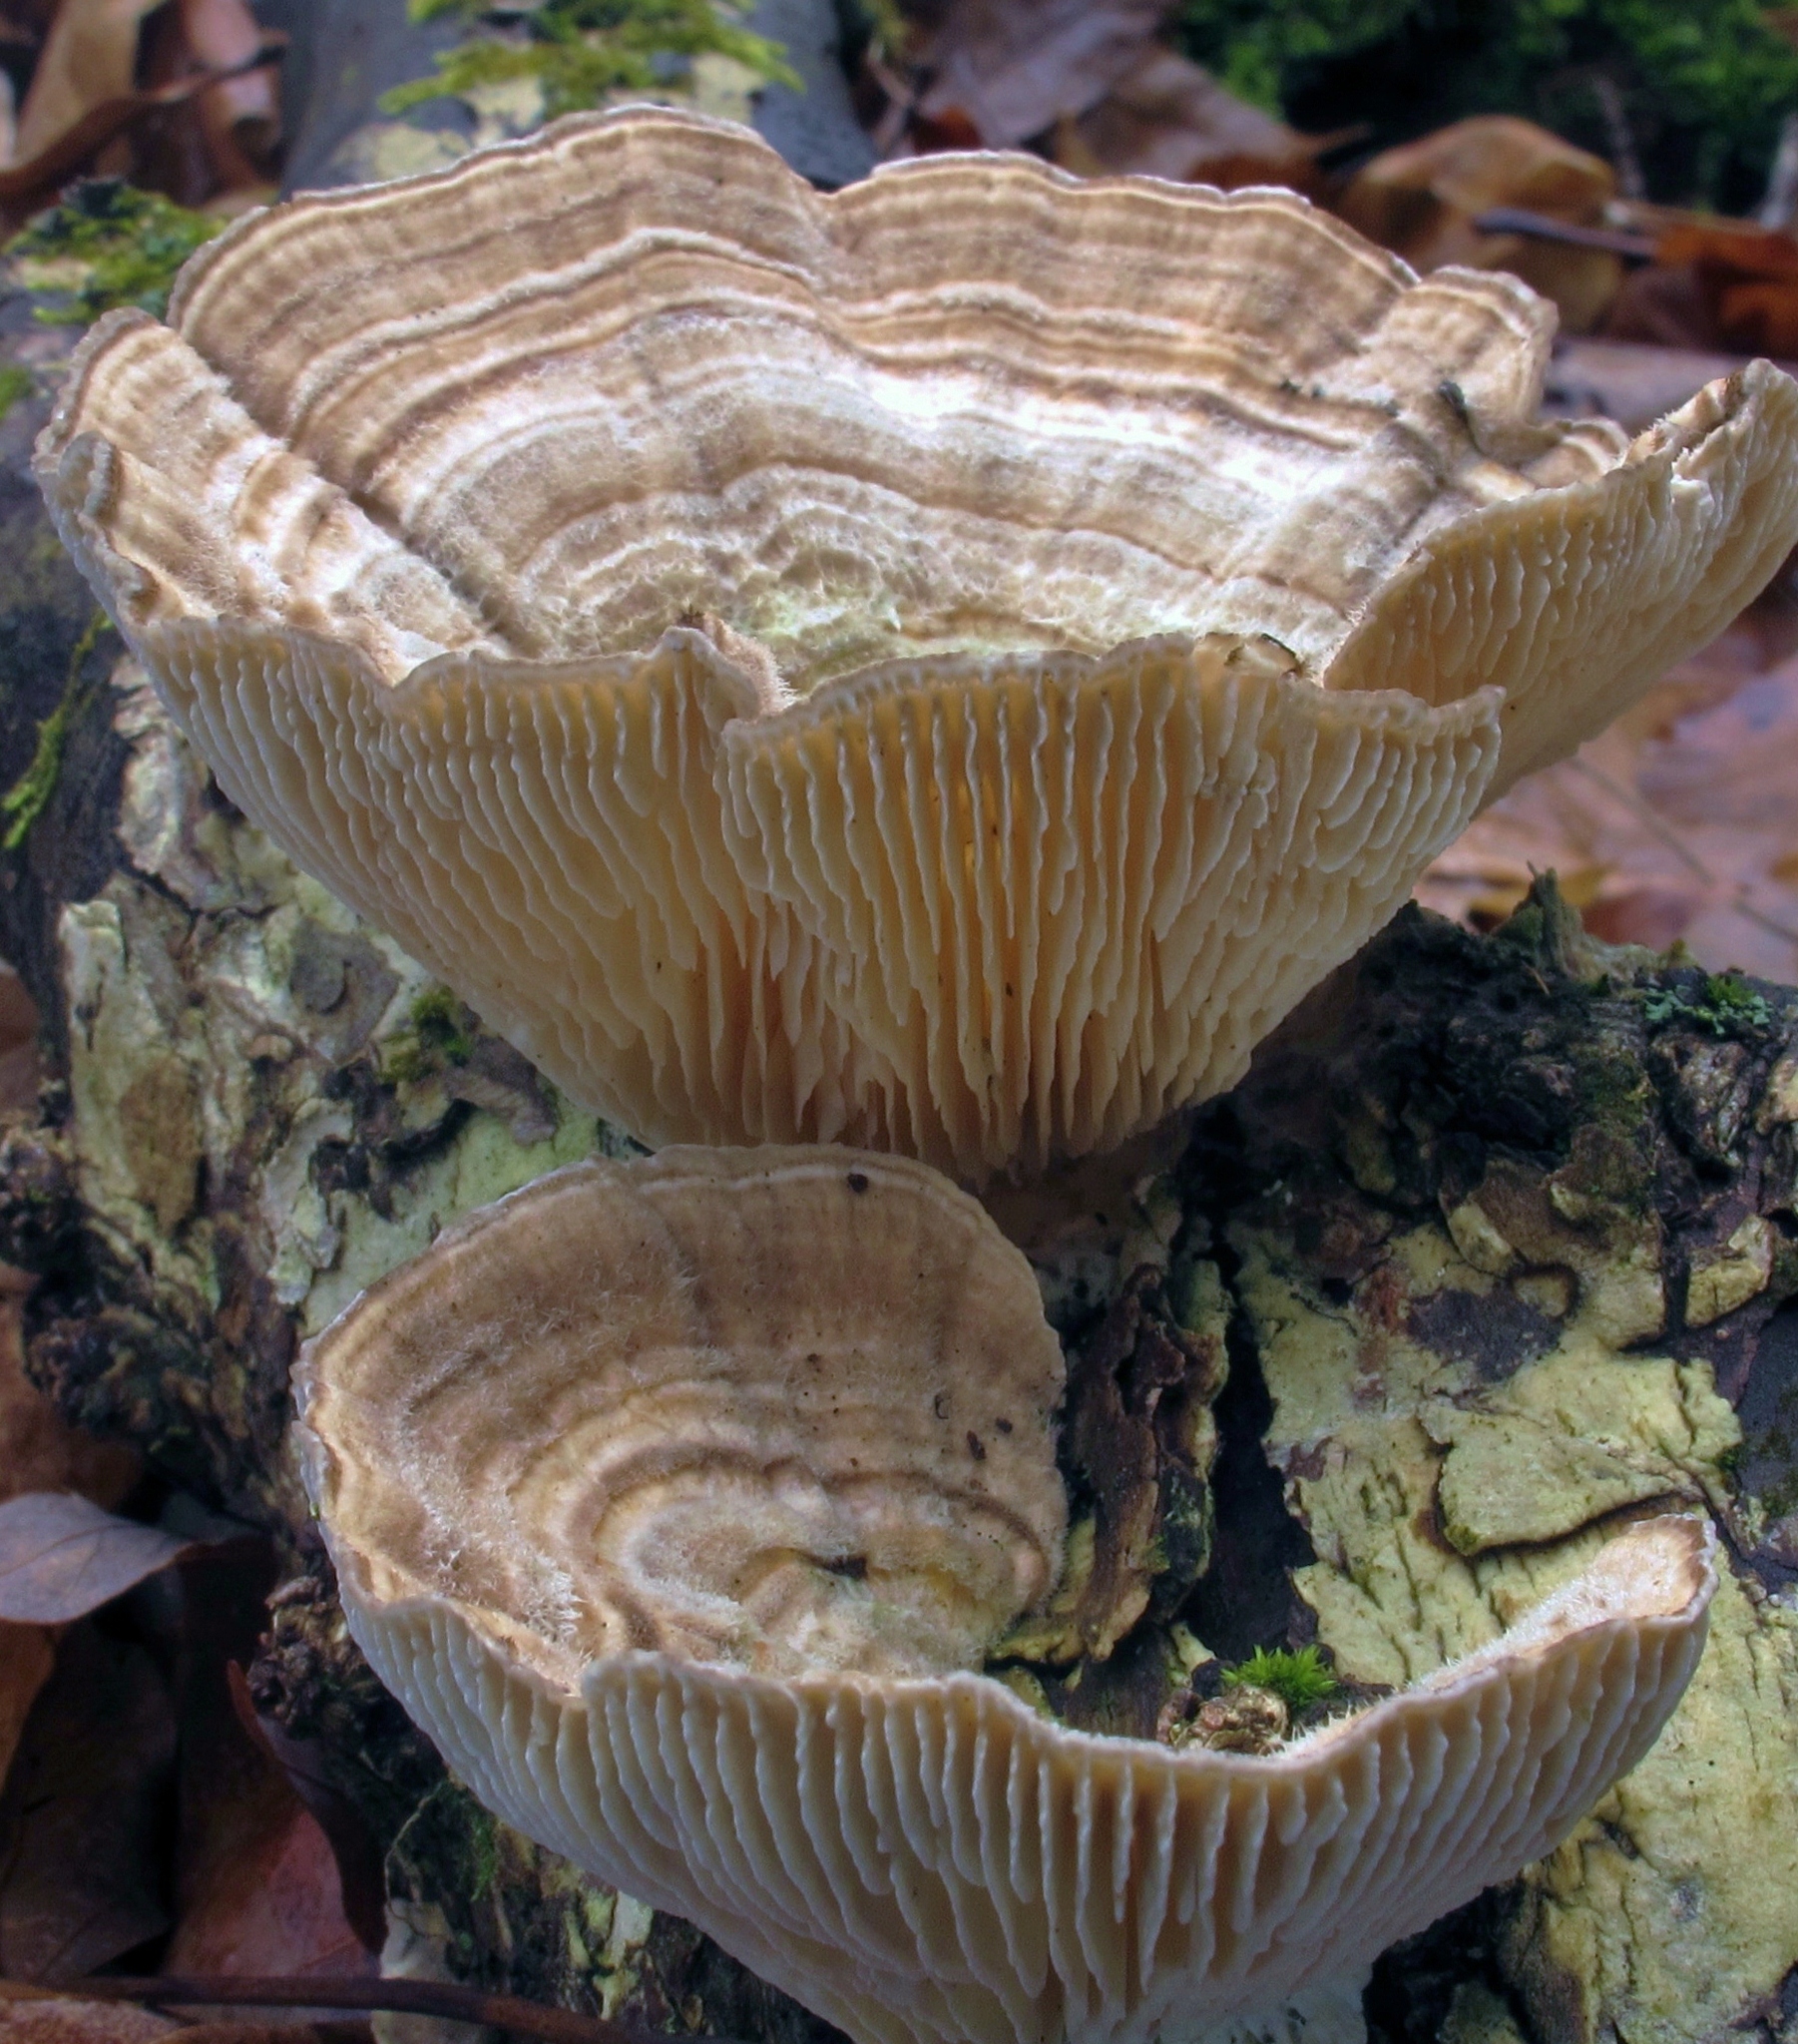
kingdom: Fungi
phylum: Basidiomycota
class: Agaricomycetes
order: Polyporales
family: Polyporaceae
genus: Lenzites
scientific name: Lenzites betulinus
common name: Birch mazegill
